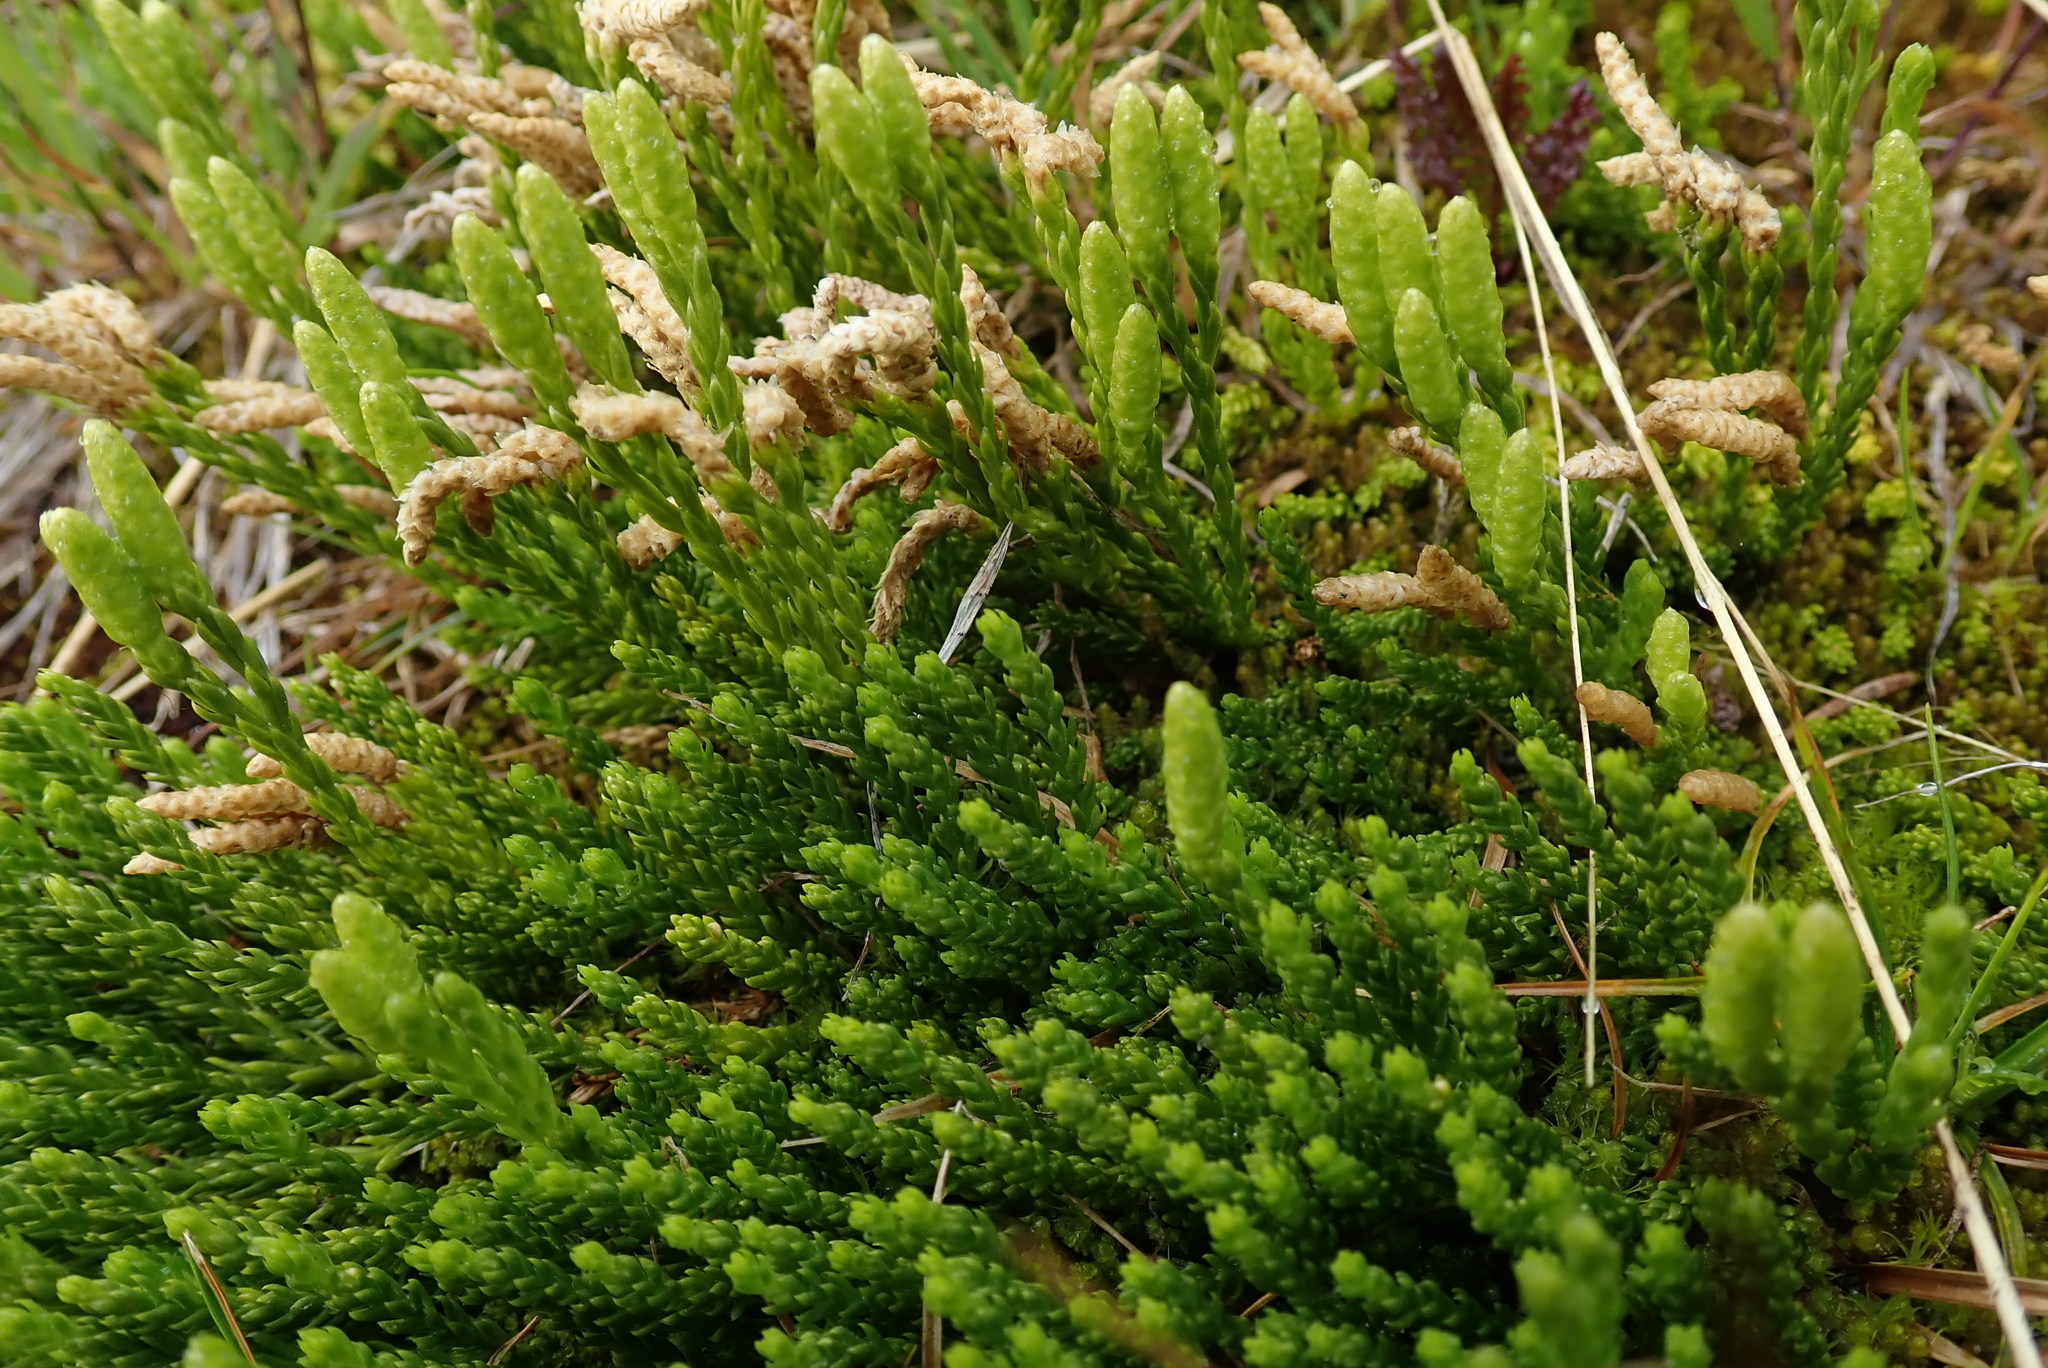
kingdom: Plantae
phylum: Tracheophyta
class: Lycopodiopsida
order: Lycopodiales
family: Lycopodiaceae
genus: Diphasiastrum
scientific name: Diphasiastrum sitchense
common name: Alaska clubmoss
